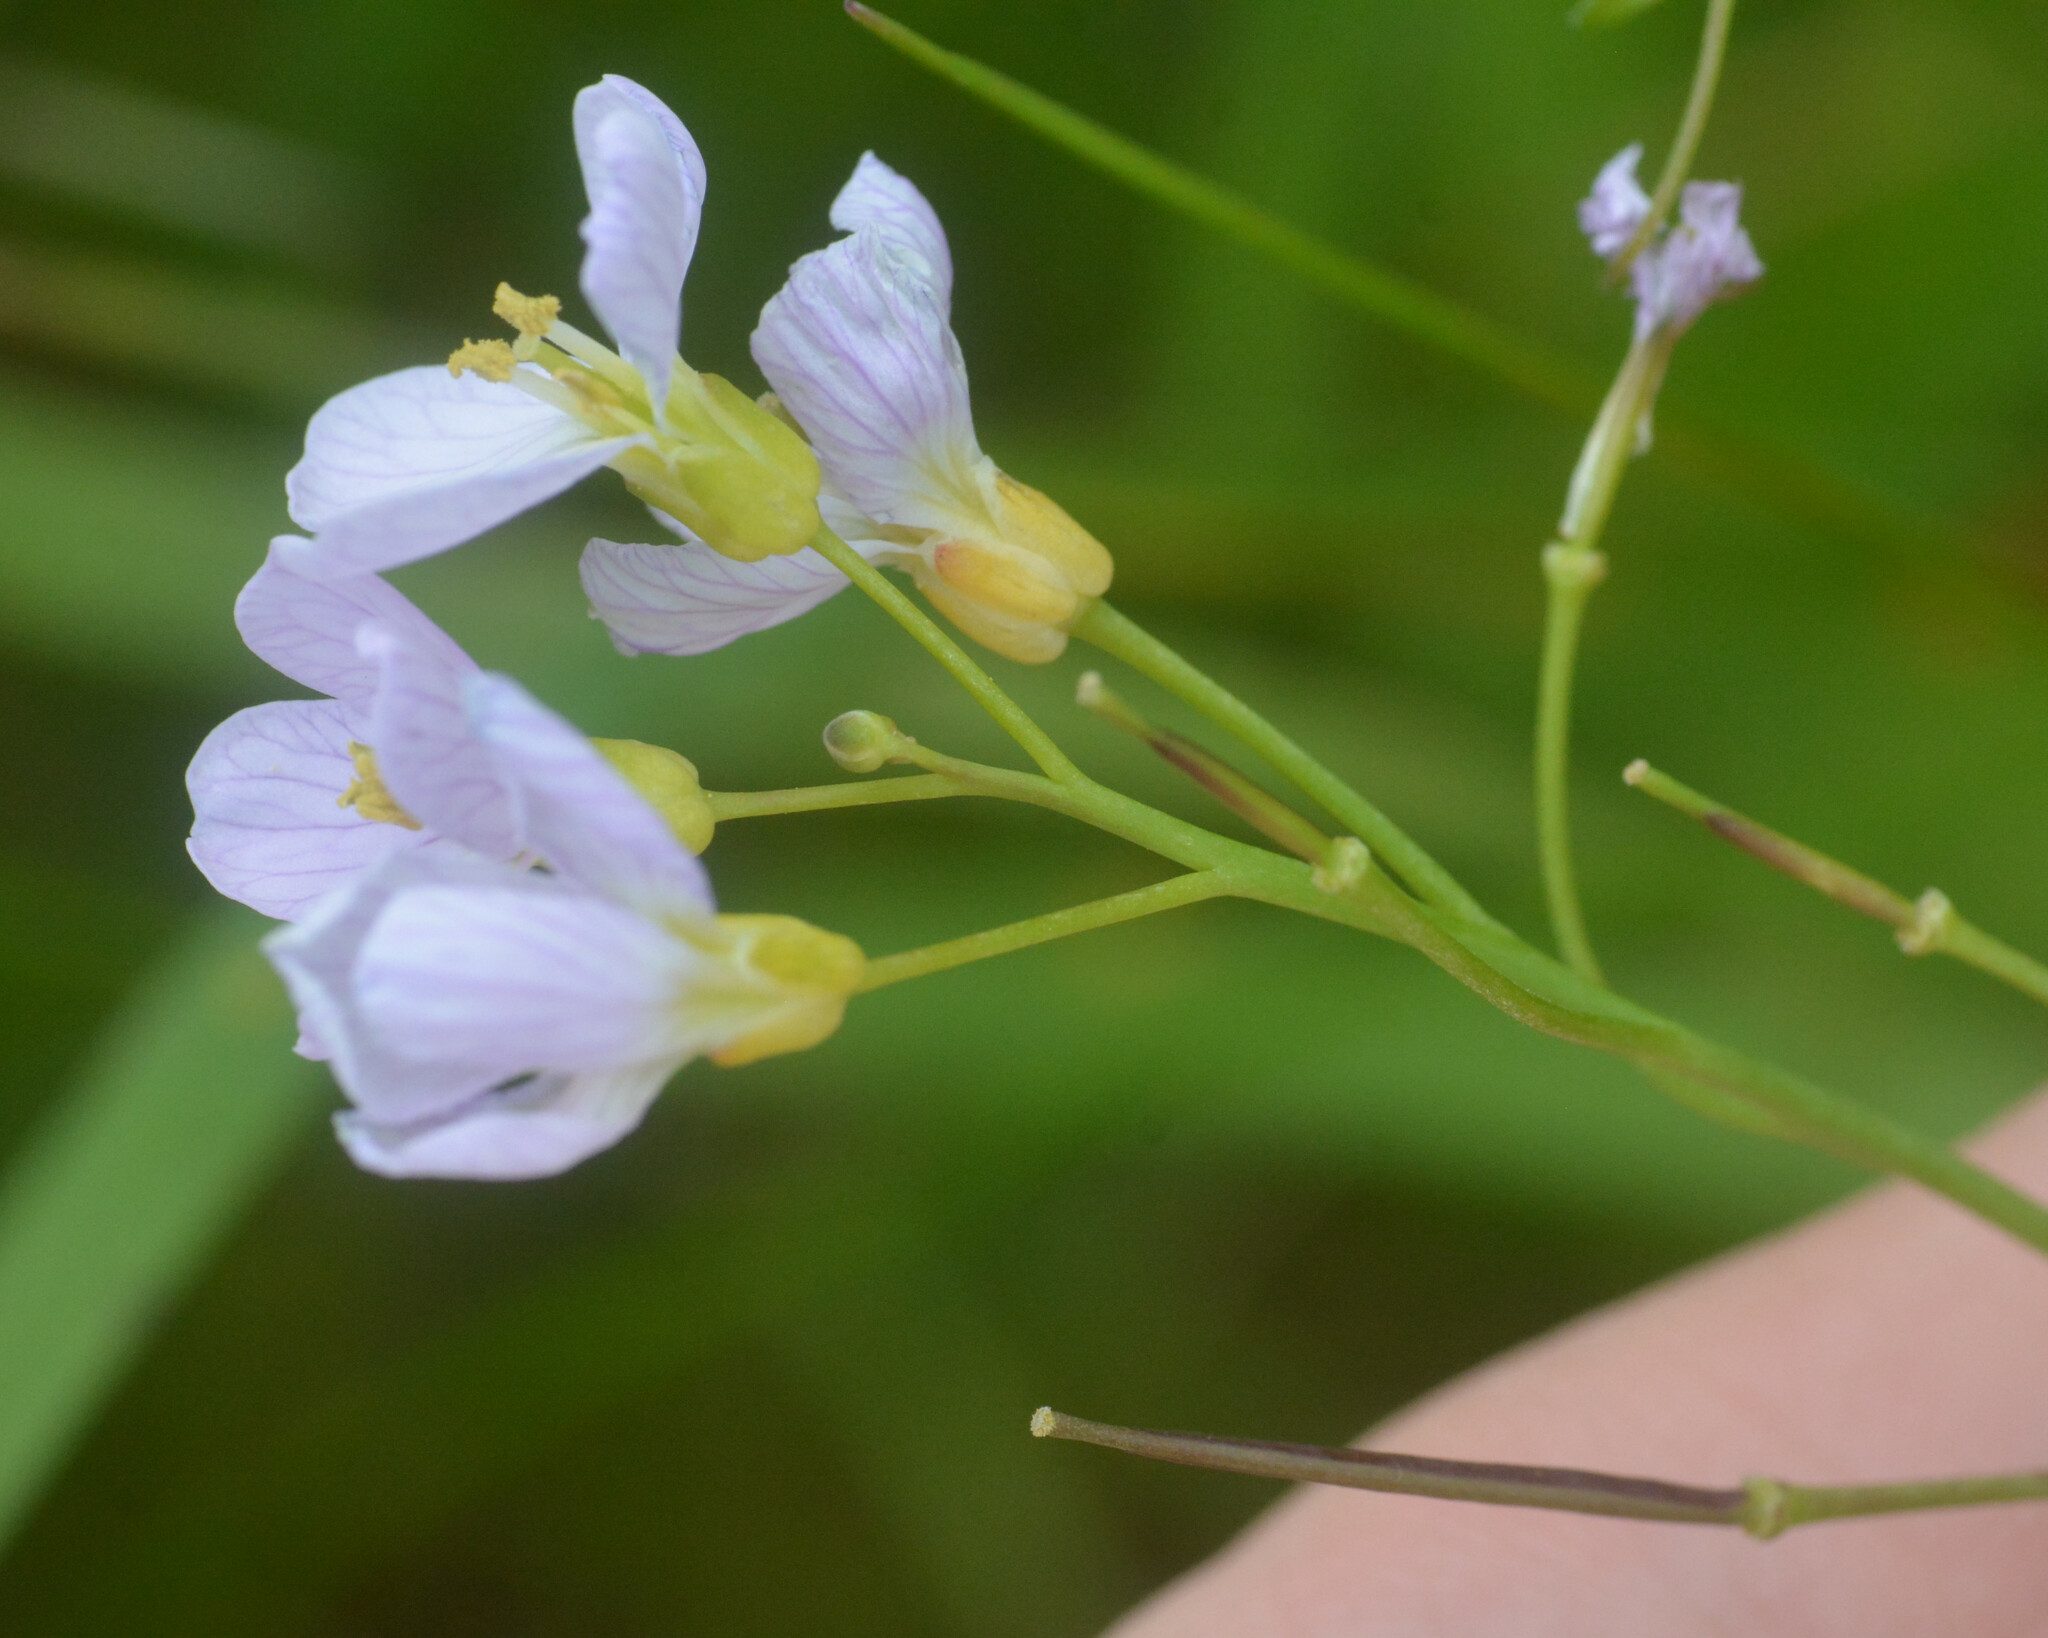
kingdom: Plantae
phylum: Tracheophyta
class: Magnoliopsida
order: Brassicales
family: Brassicaceae
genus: Cardamine
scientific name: Cardamine pratensis
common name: Cuckoo flower
